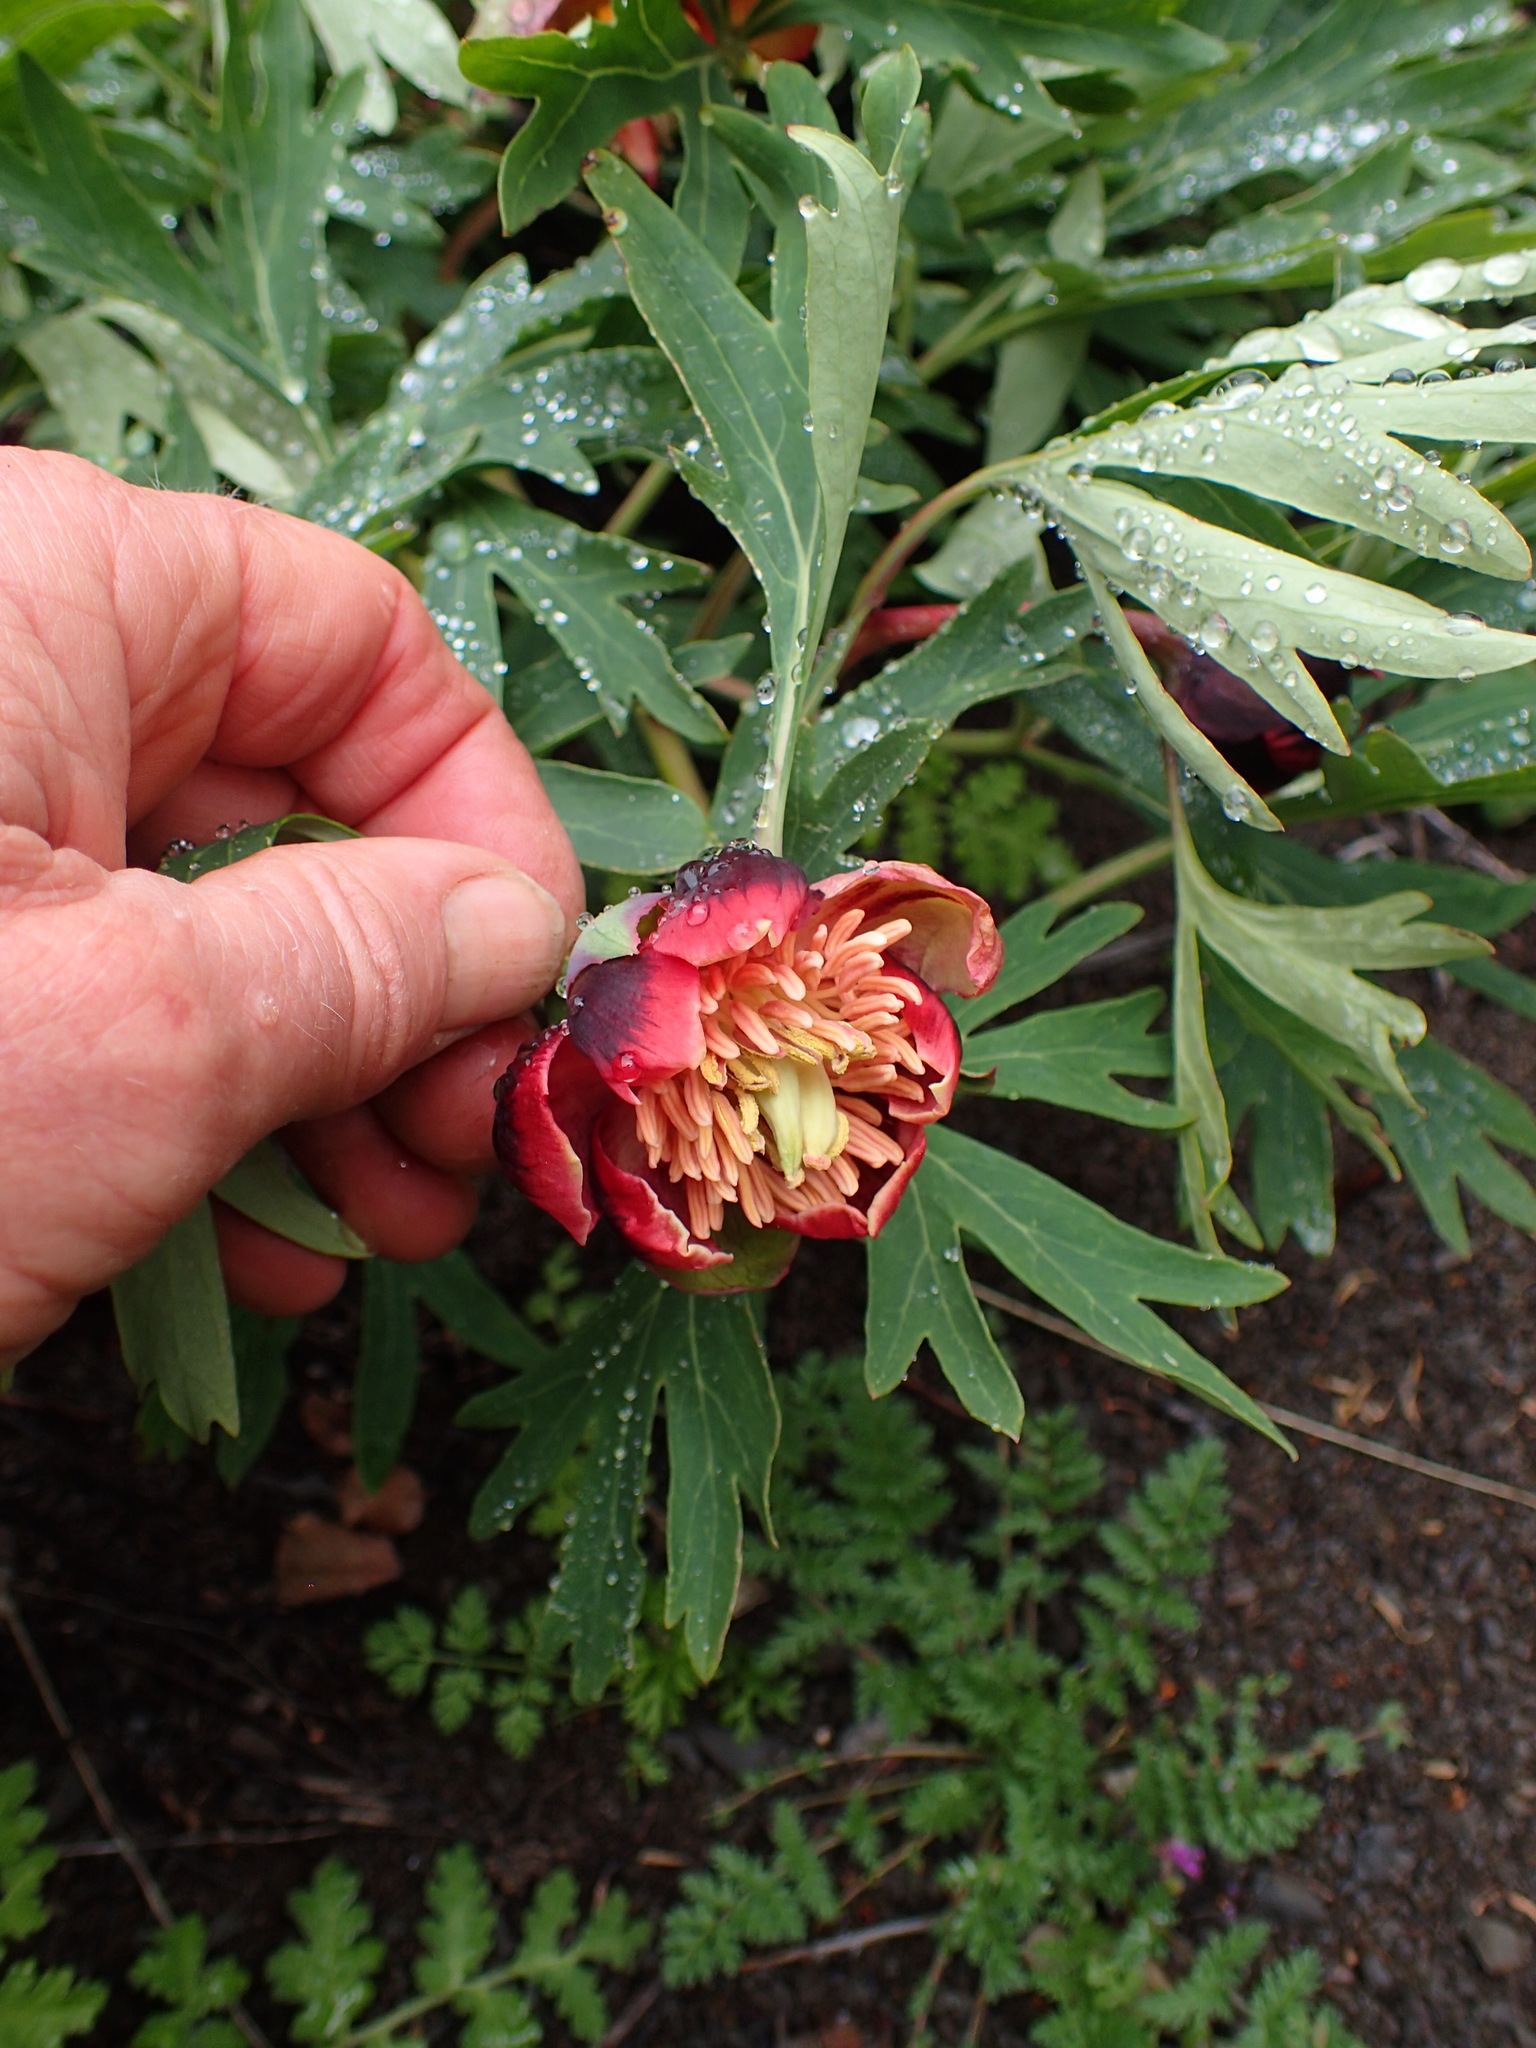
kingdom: Plantae
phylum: Tracheophyta
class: Magnoliopsida
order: Saxifragales
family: Paeoniaceae
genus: Paeonia
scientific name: Paeonia californica
